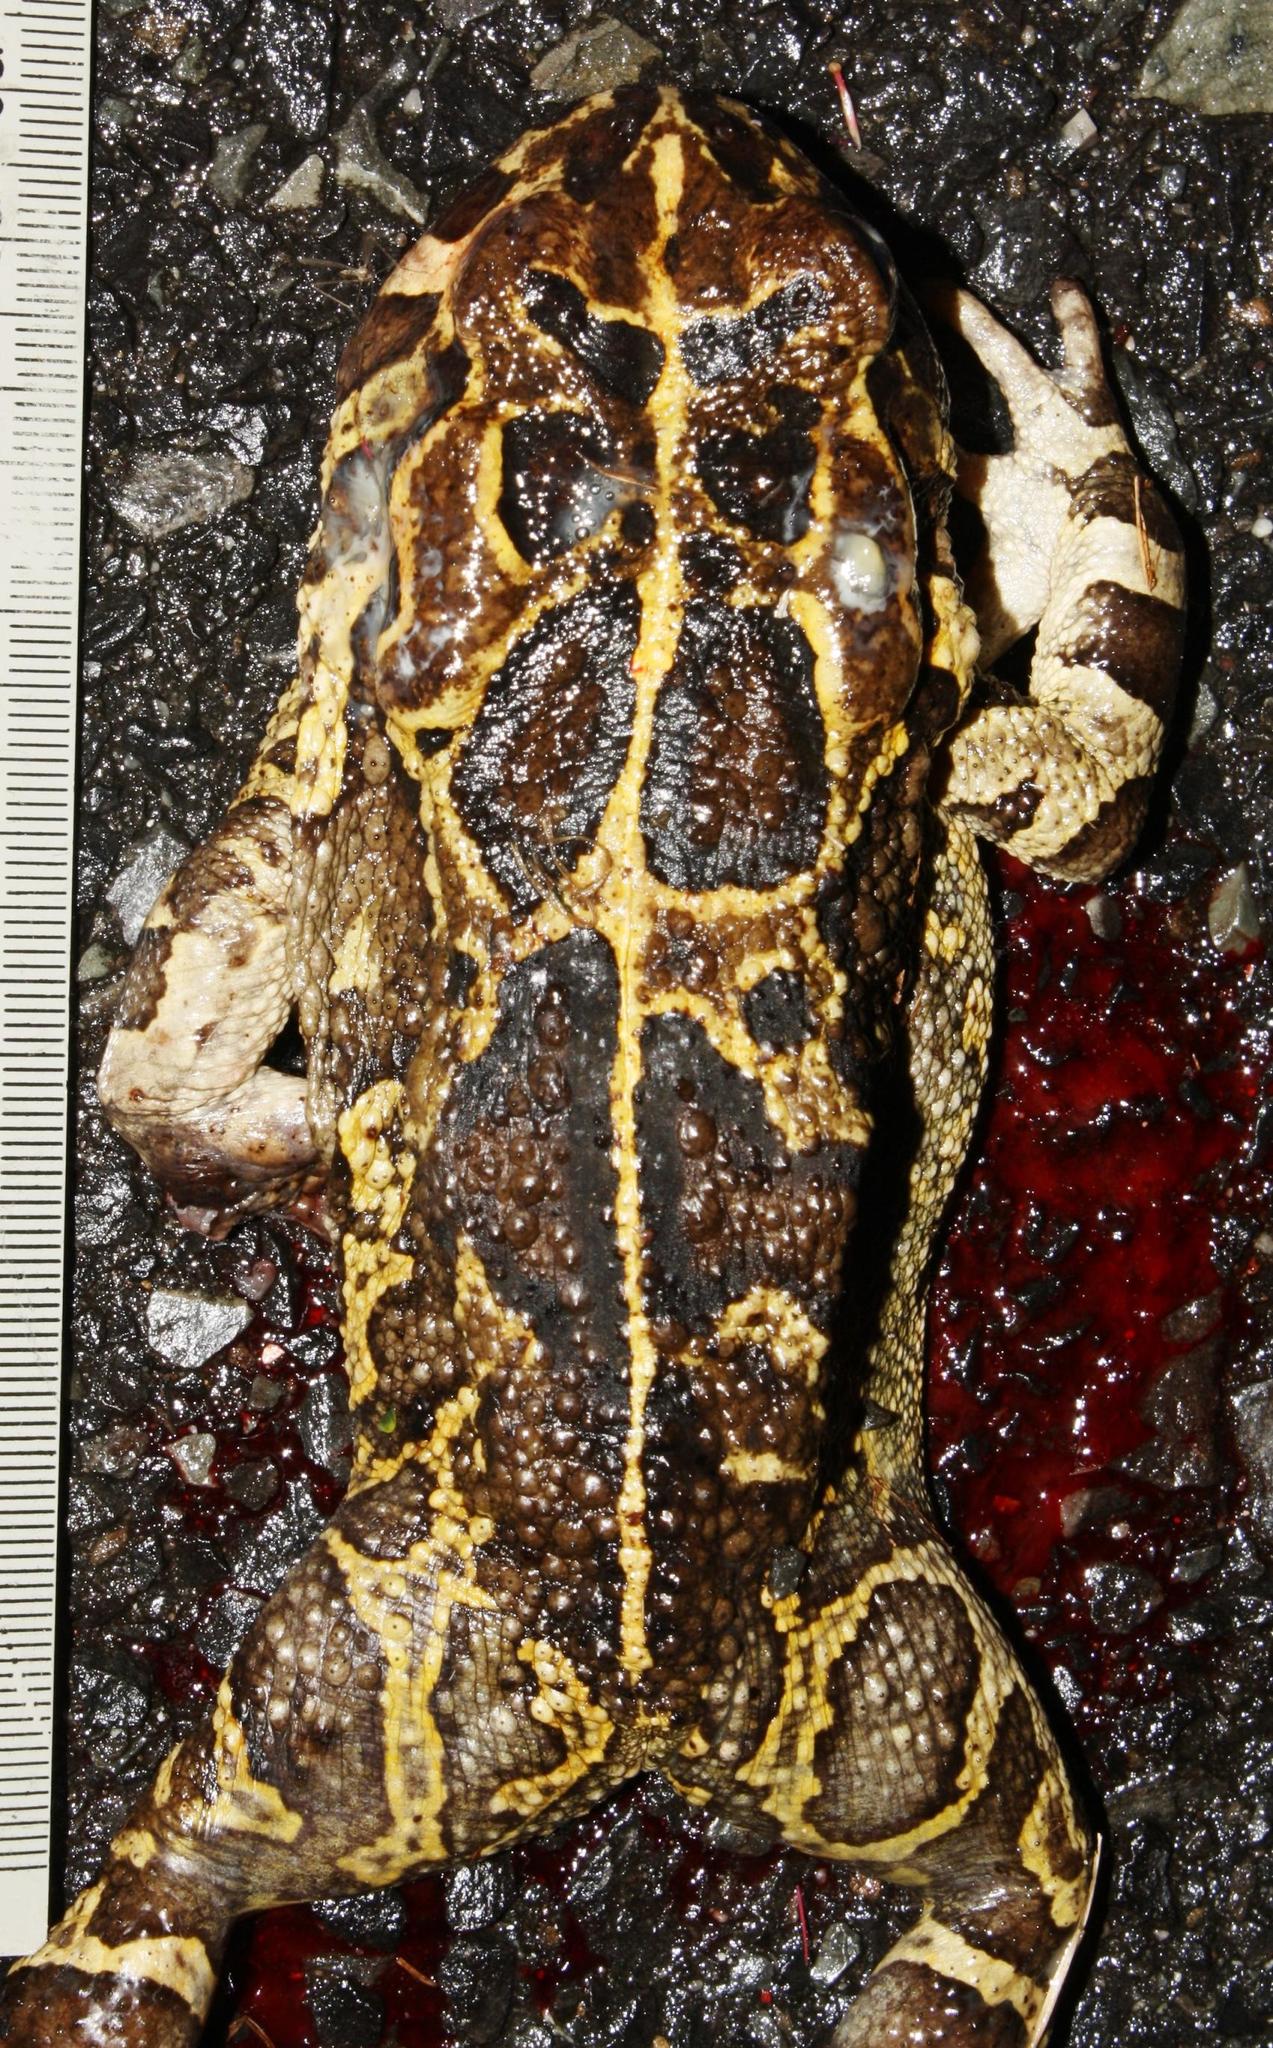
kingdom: Animalia
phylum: Chordata
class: Amphibia
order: Anura
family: Bufonidae
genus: Sclerophrys
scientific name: Sclerophrys pantherina
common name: Panther toad
